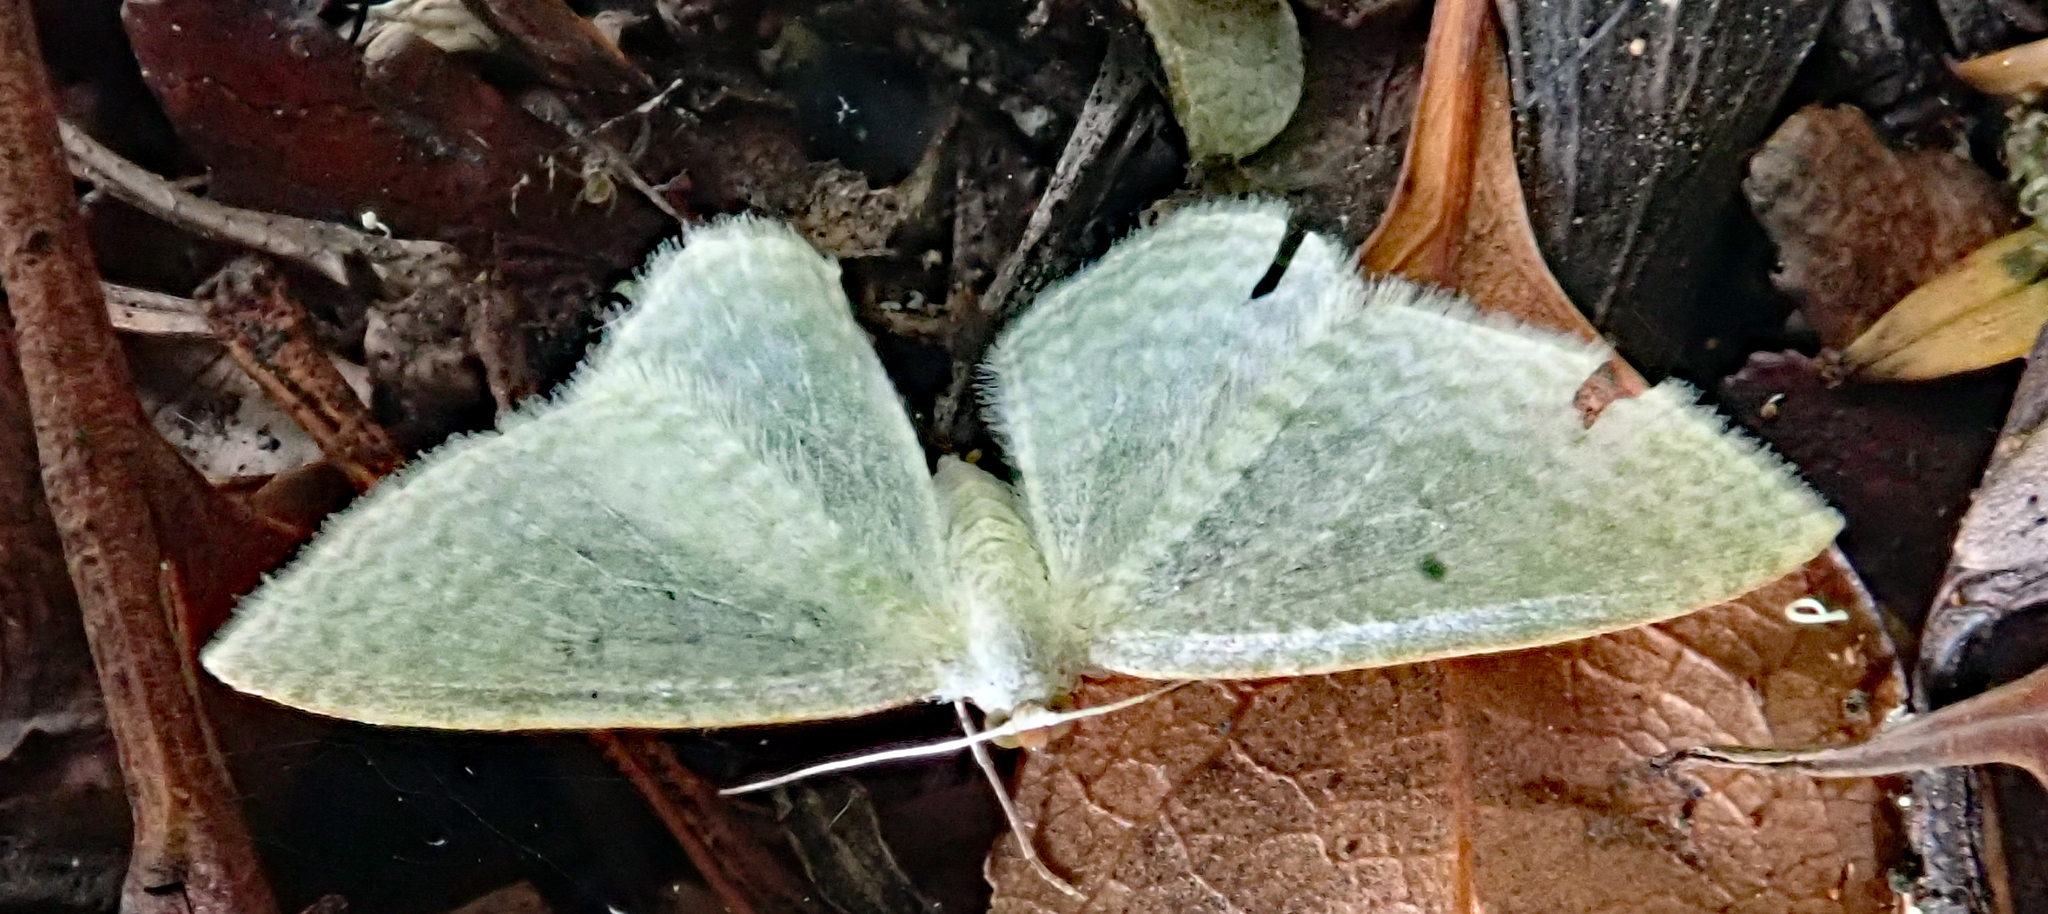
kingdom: Animalia
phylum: Arthropoda
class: Insecta
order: Lepidoptera
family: Geometridae
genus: Poecilasthena
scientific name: Poecilasthena pulchraria
